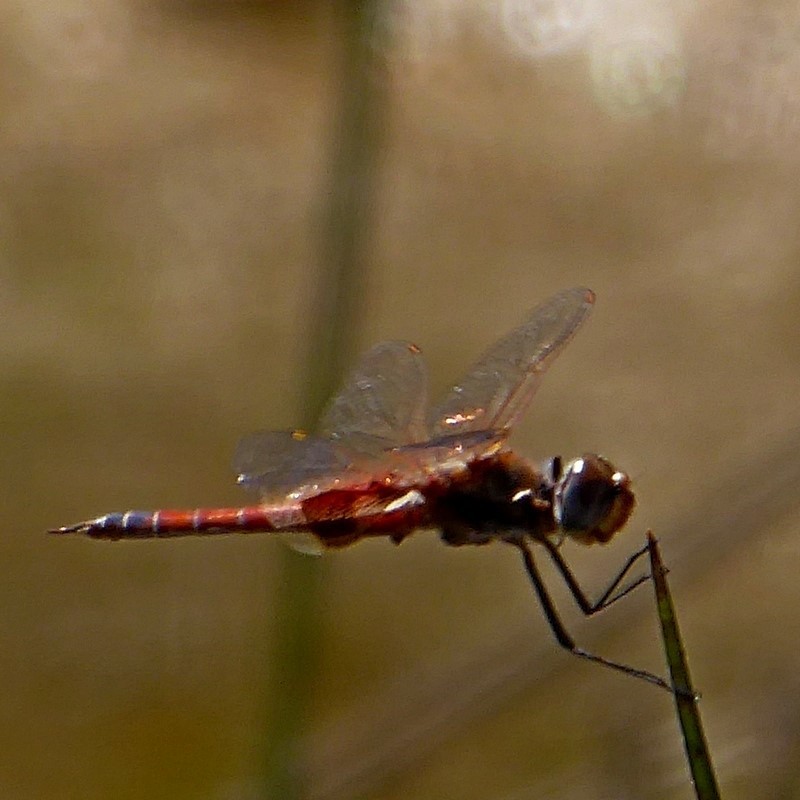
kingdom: Animalia
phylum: Arthropoda
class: Insecta
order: Odonata
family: Libellulidae
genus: Tramea
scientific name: Tramea loewii
